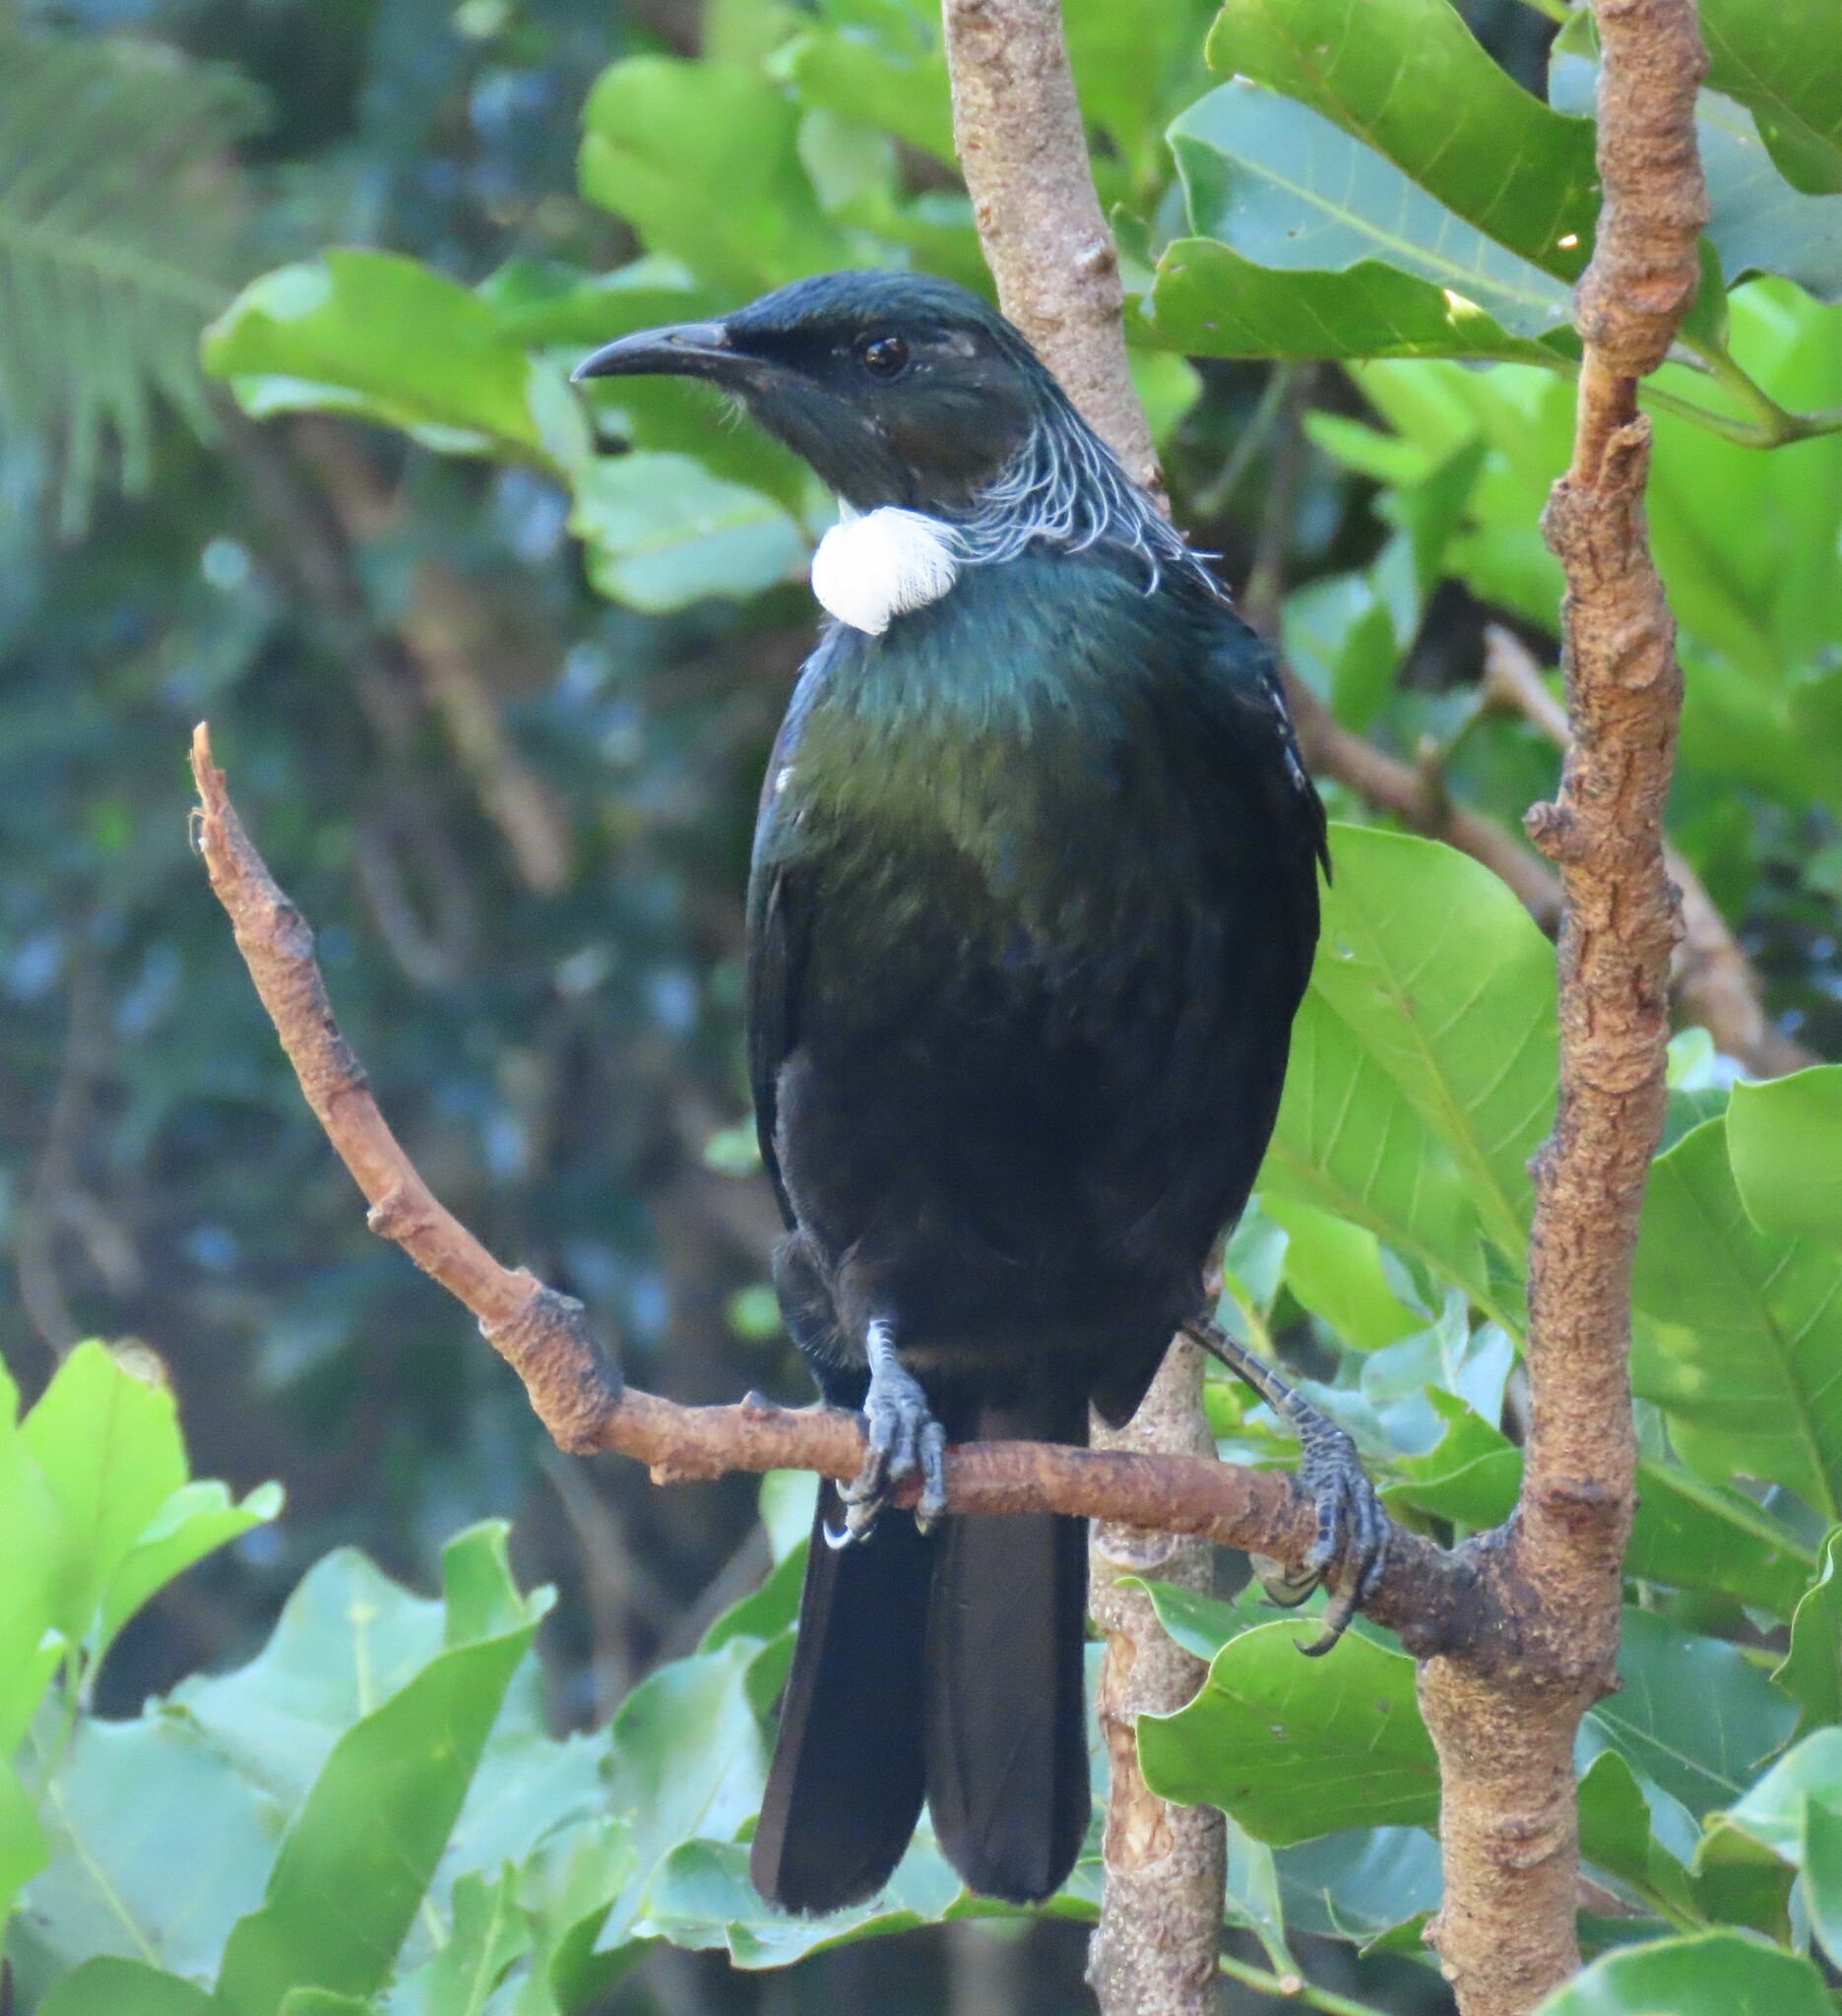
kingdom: Animalia
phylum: Chordata
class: Aves
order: Passeriformes
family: Meliphagidae
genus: Prosthemadera
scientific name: Prosthemadera novaeseelandiae
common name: Tui
